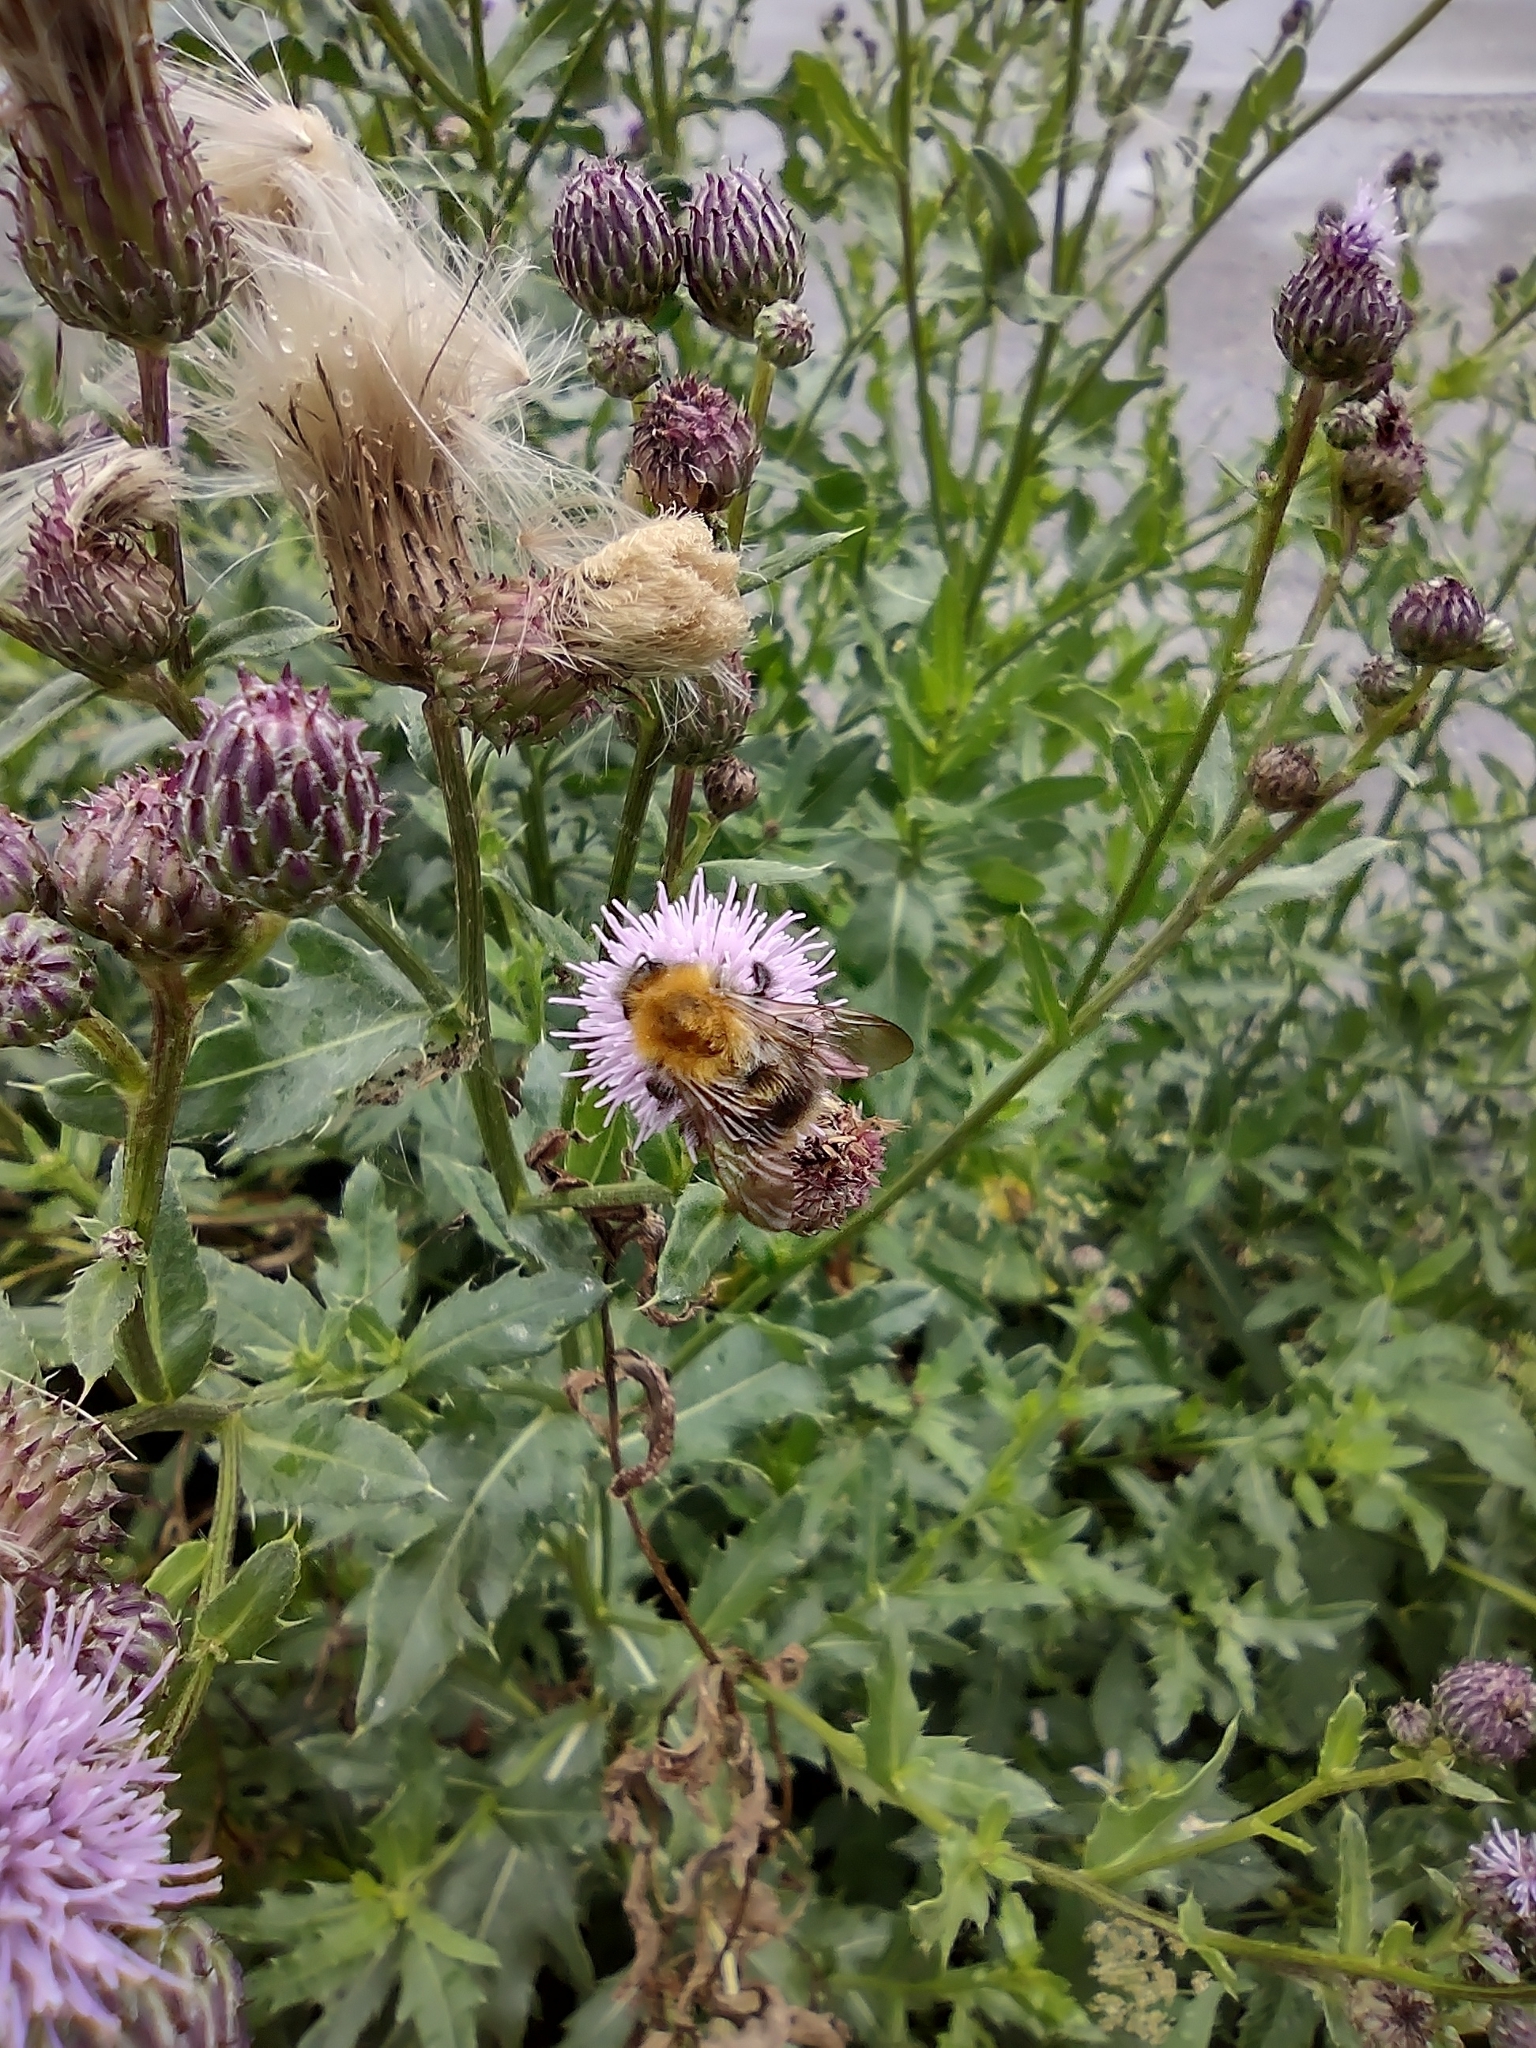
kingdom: Animalia
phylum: Arthropoda
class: Insecta
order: Hymenoptera
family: Apidae
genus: Bombus
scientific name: Bombus pascuorum
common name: Common carder bee
